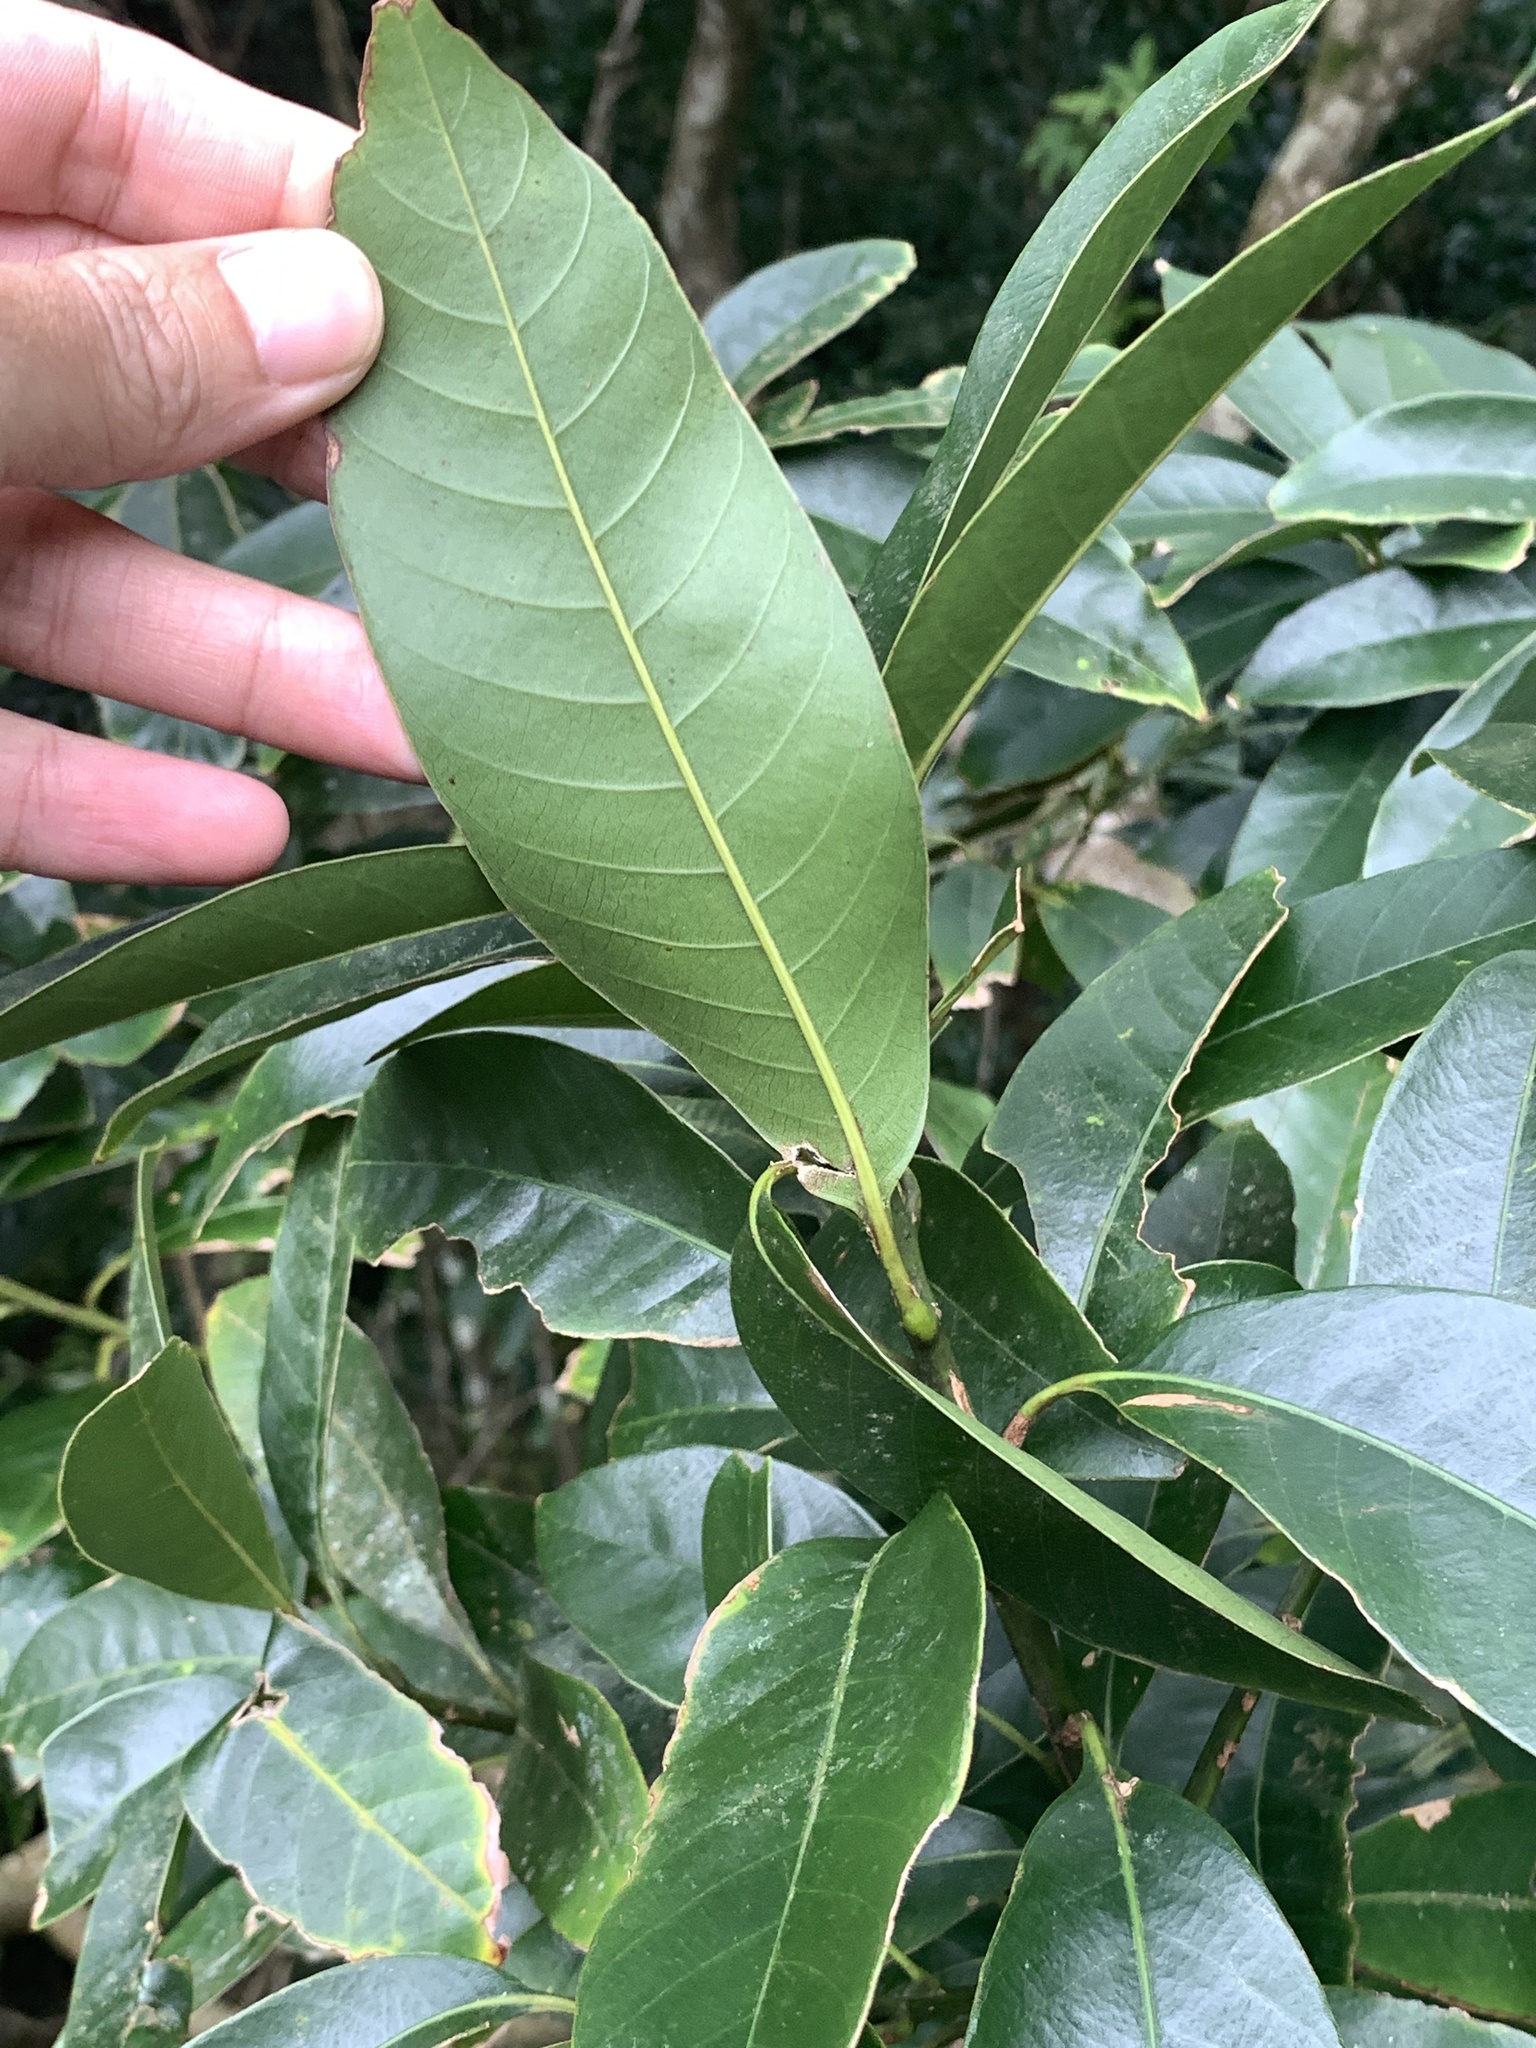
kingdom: Plantae
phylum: Tracheophyta
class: Magnoliopsida
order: Fagales
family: Fagaceae
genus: Lithocarpus
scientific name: Lithocarpus brevicaudatus
